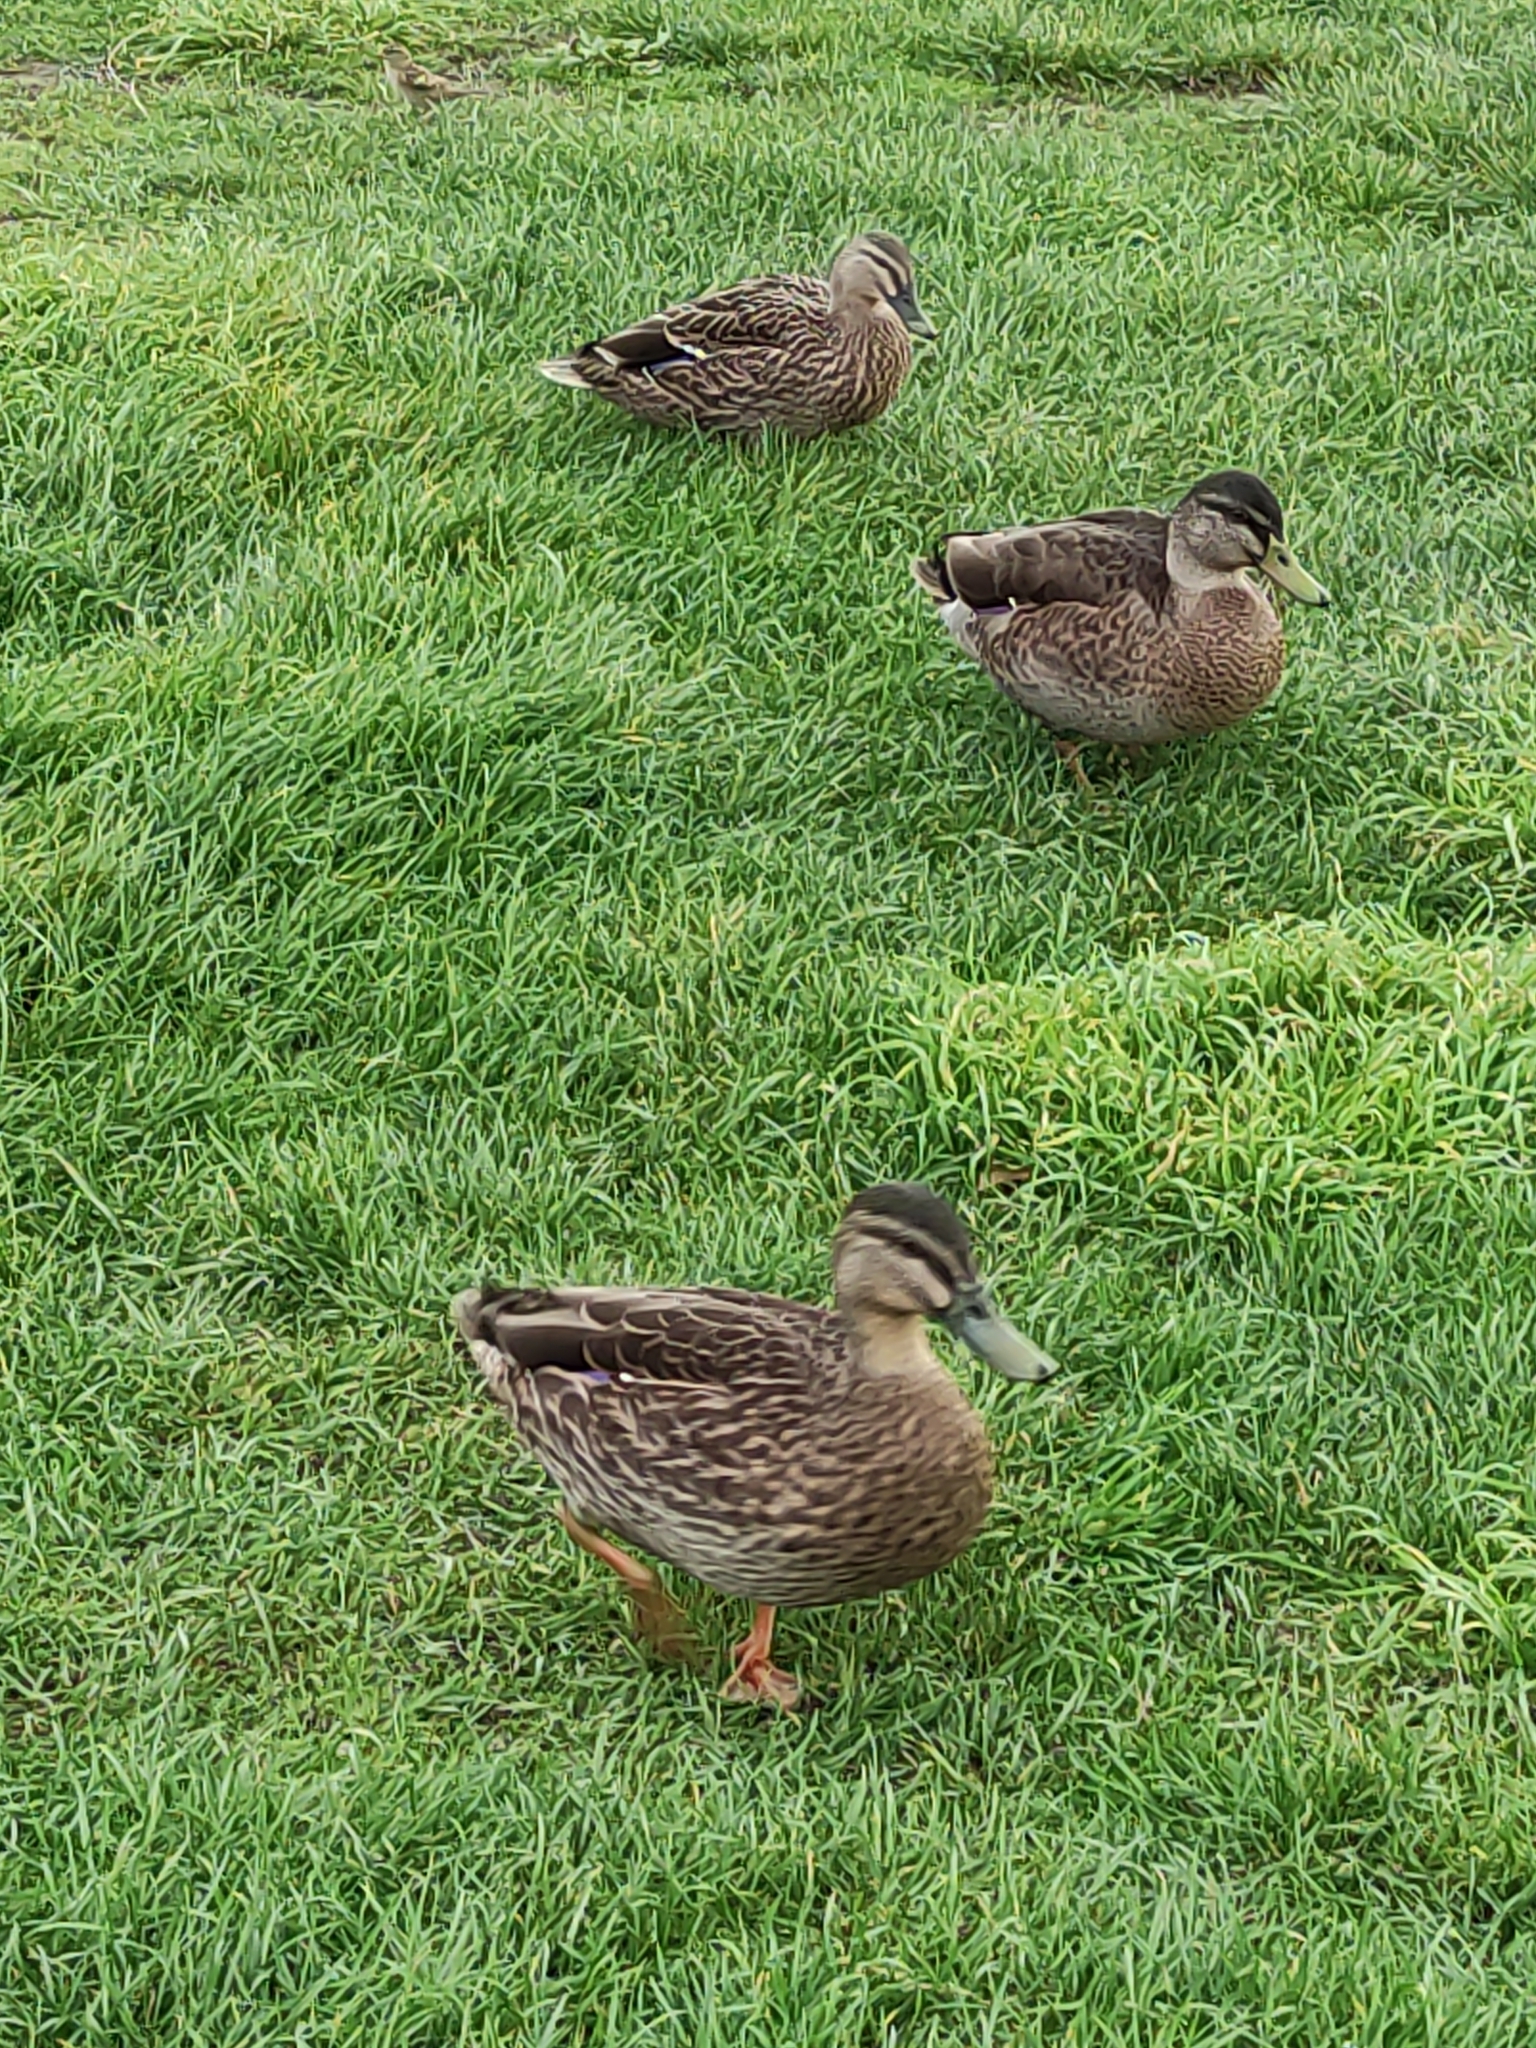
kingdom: Animalia
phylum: Chordata
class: Aves
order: Anseriformes
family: Anatidae
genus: Anas
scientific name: Anas
